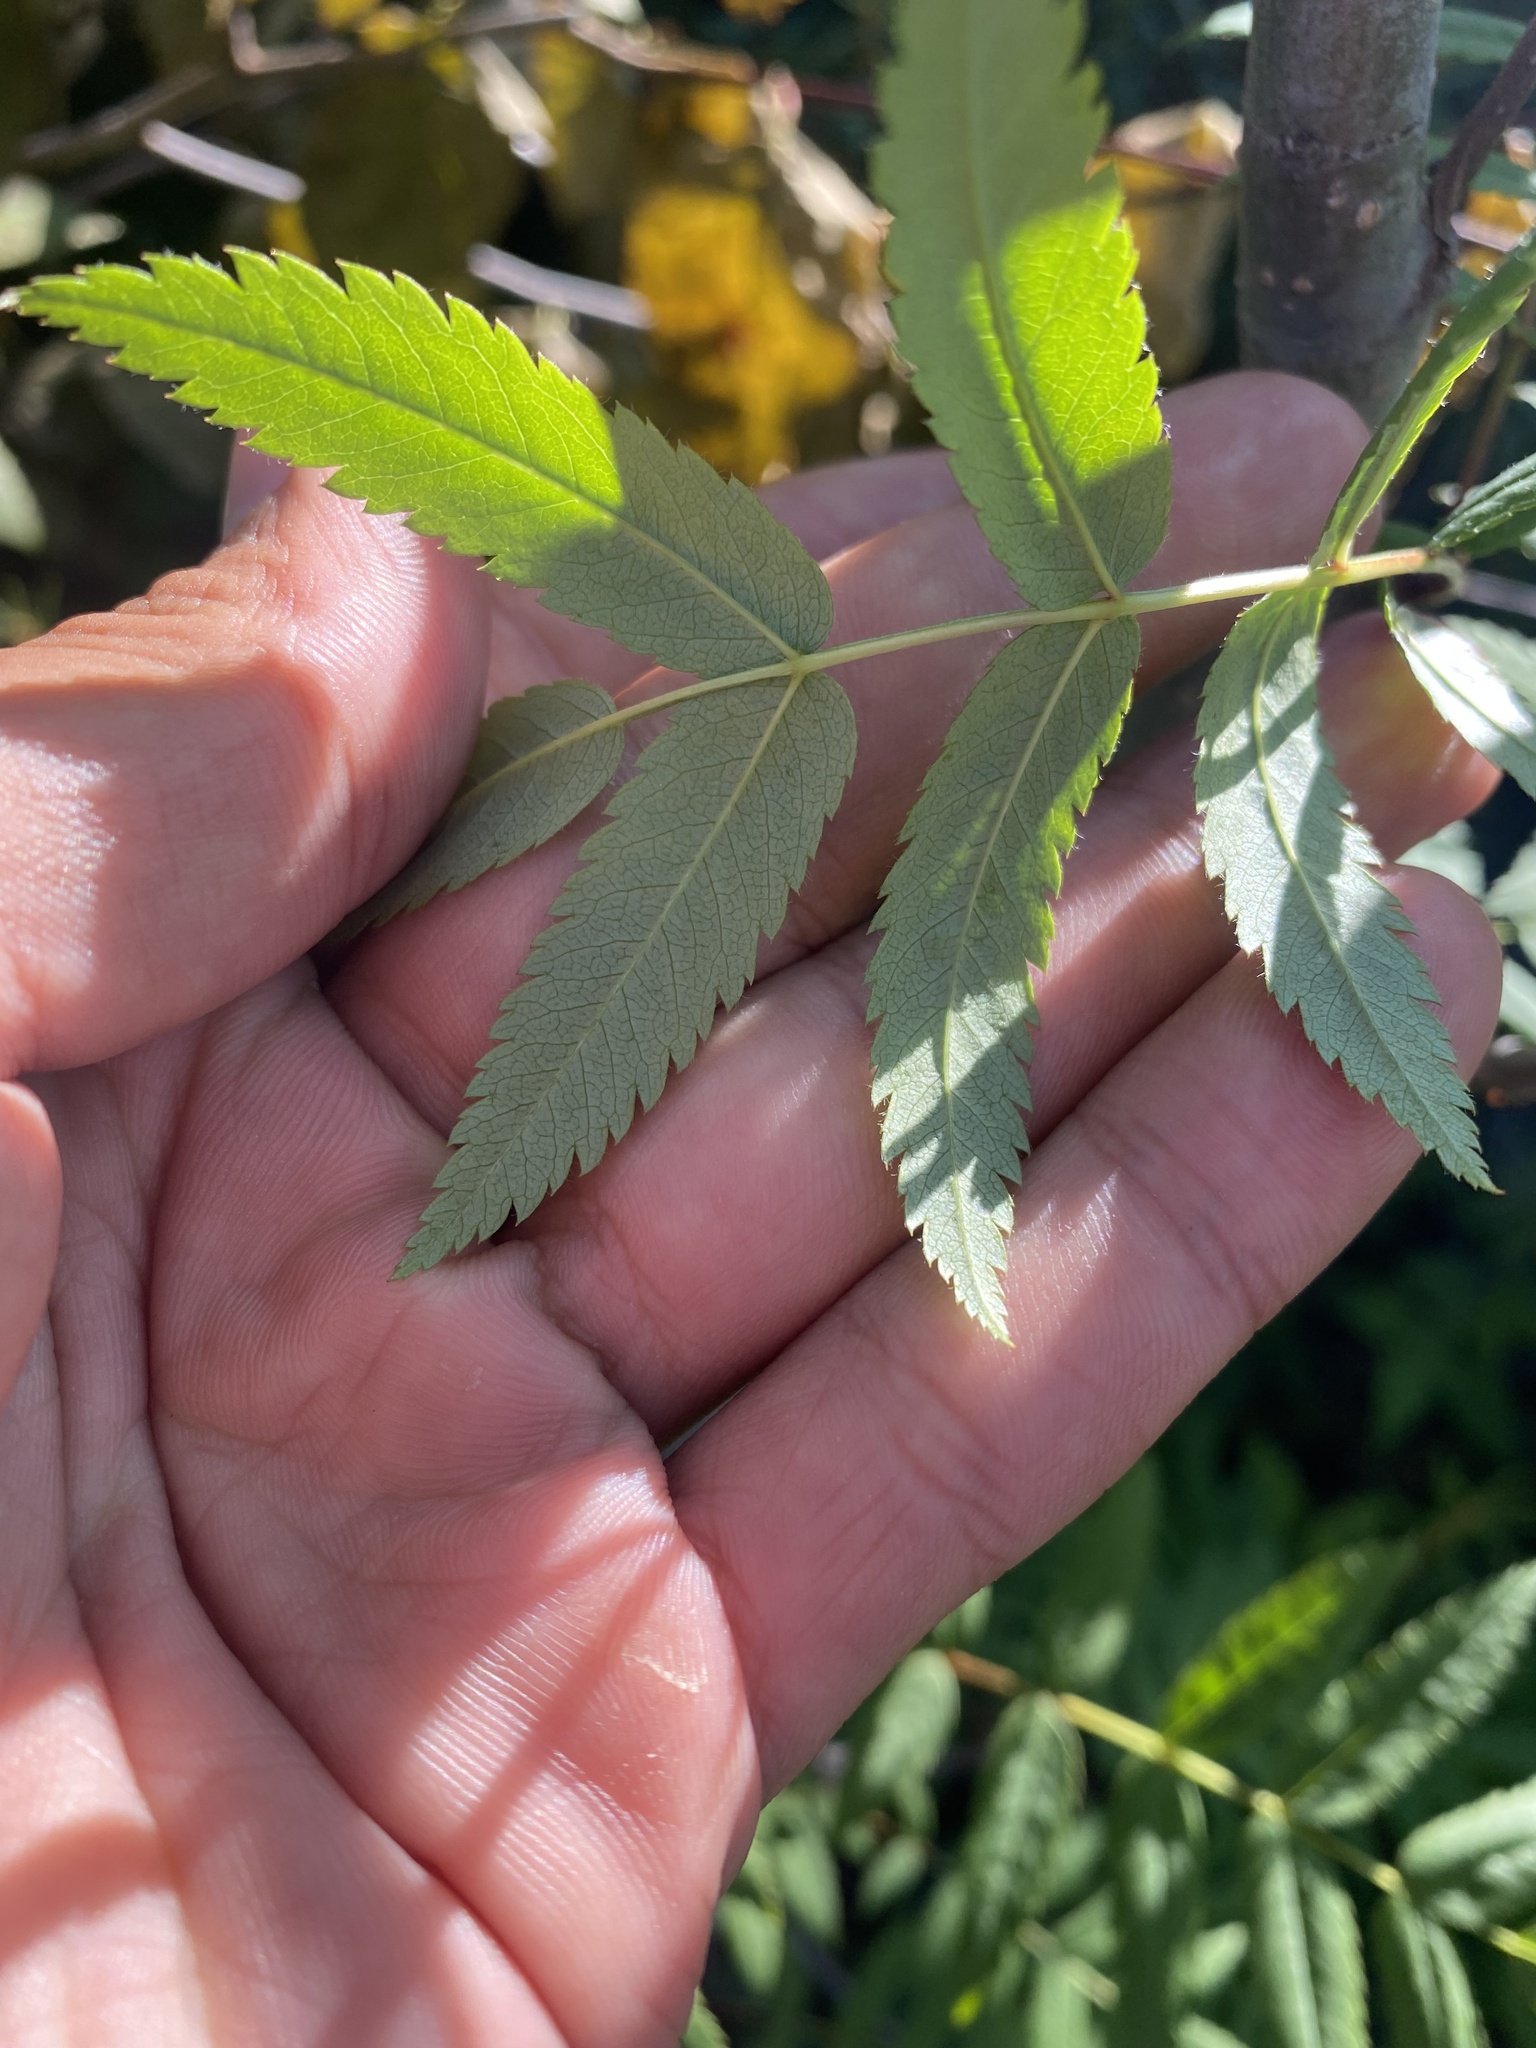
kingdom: Plantae
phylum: Tracheophyta
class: Magnoliopsida
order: Rosales
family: Rosaceae
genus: Sorbus
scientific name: Sorbus aucuparia
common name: Rowan
